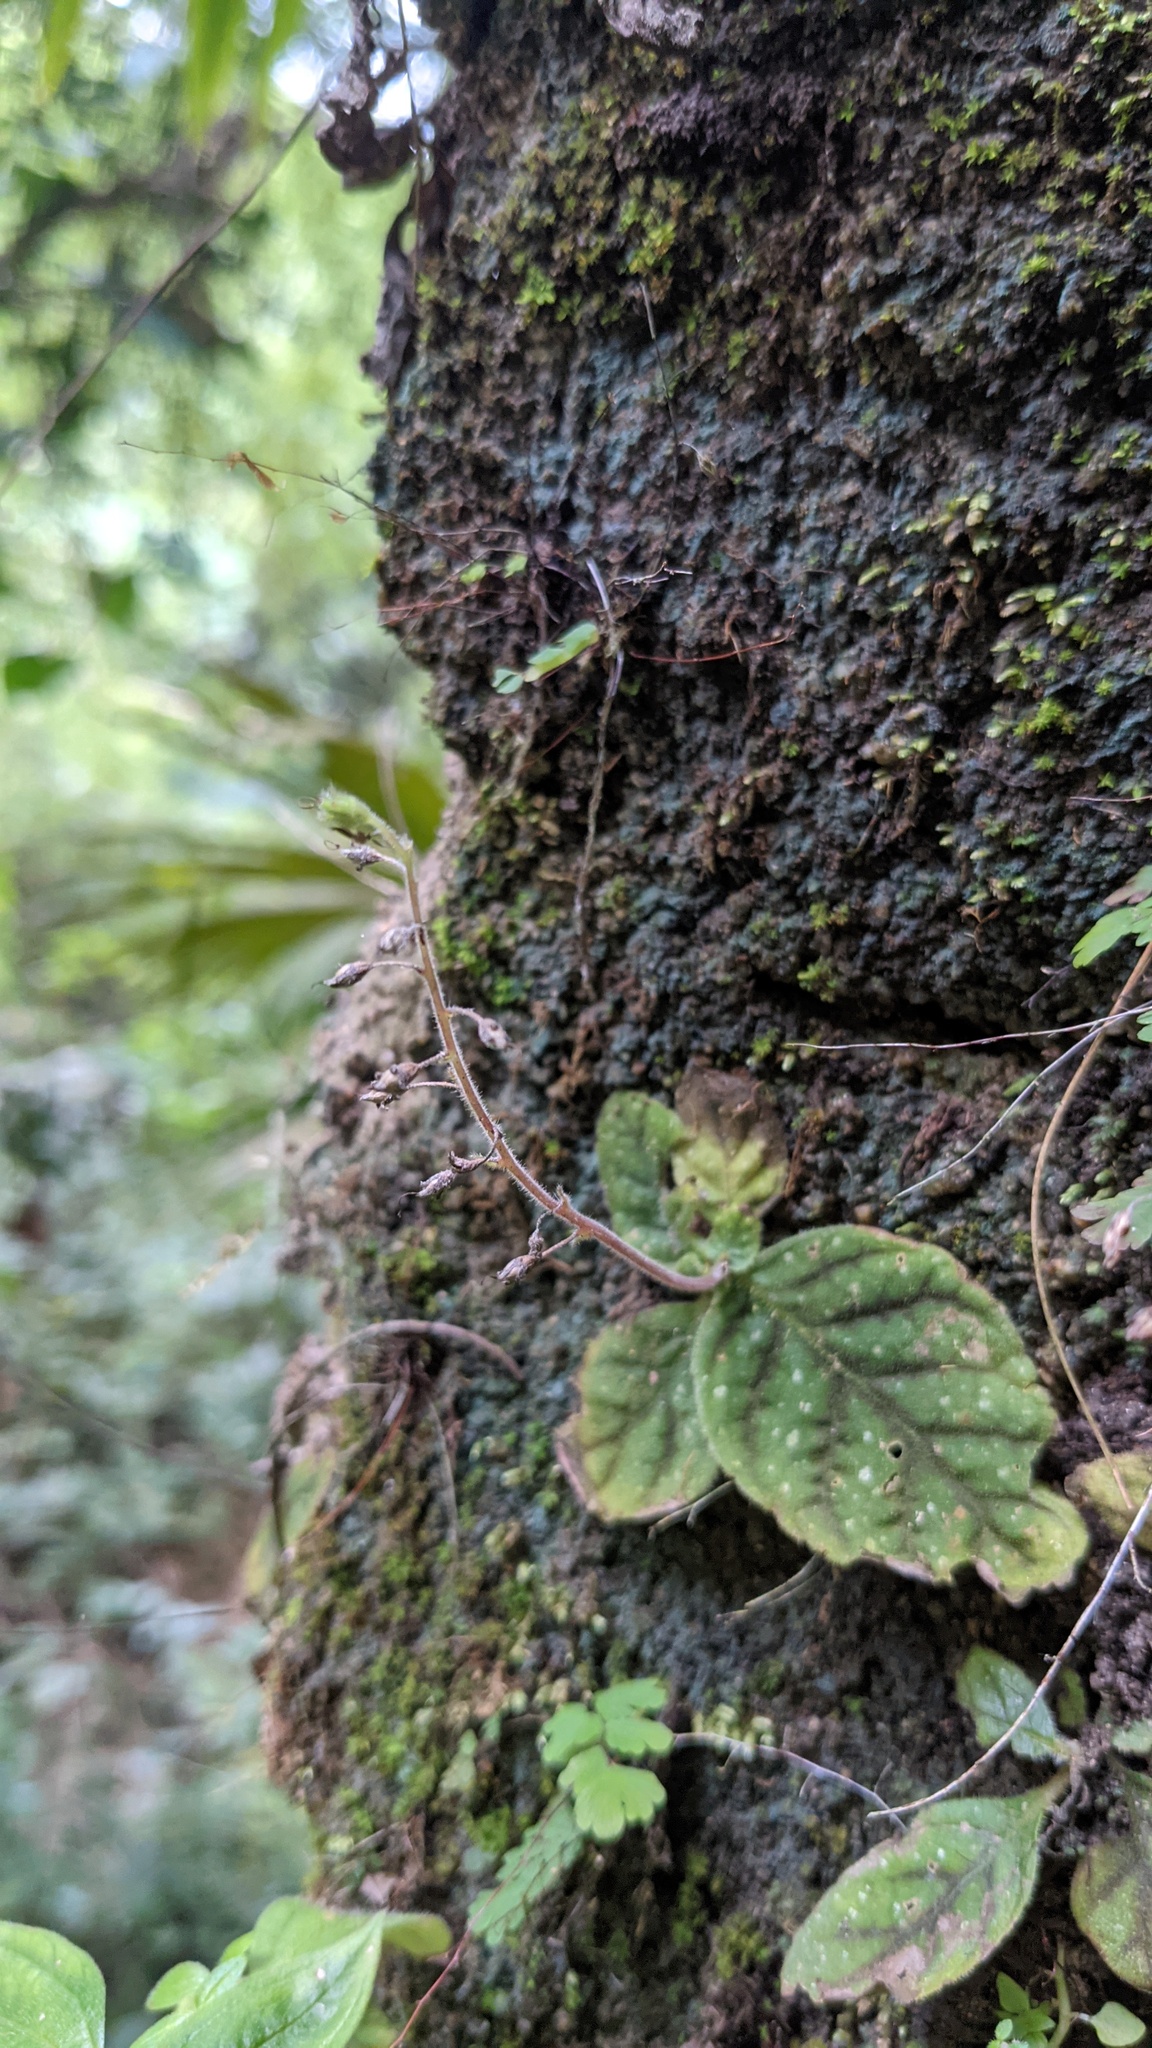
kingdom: Plantae
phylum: Tracheophyta
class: Magnoliopsida
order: Lamiales
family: Gesneriaceae
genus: Gloxinia
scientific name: Gloxinia erinoides
